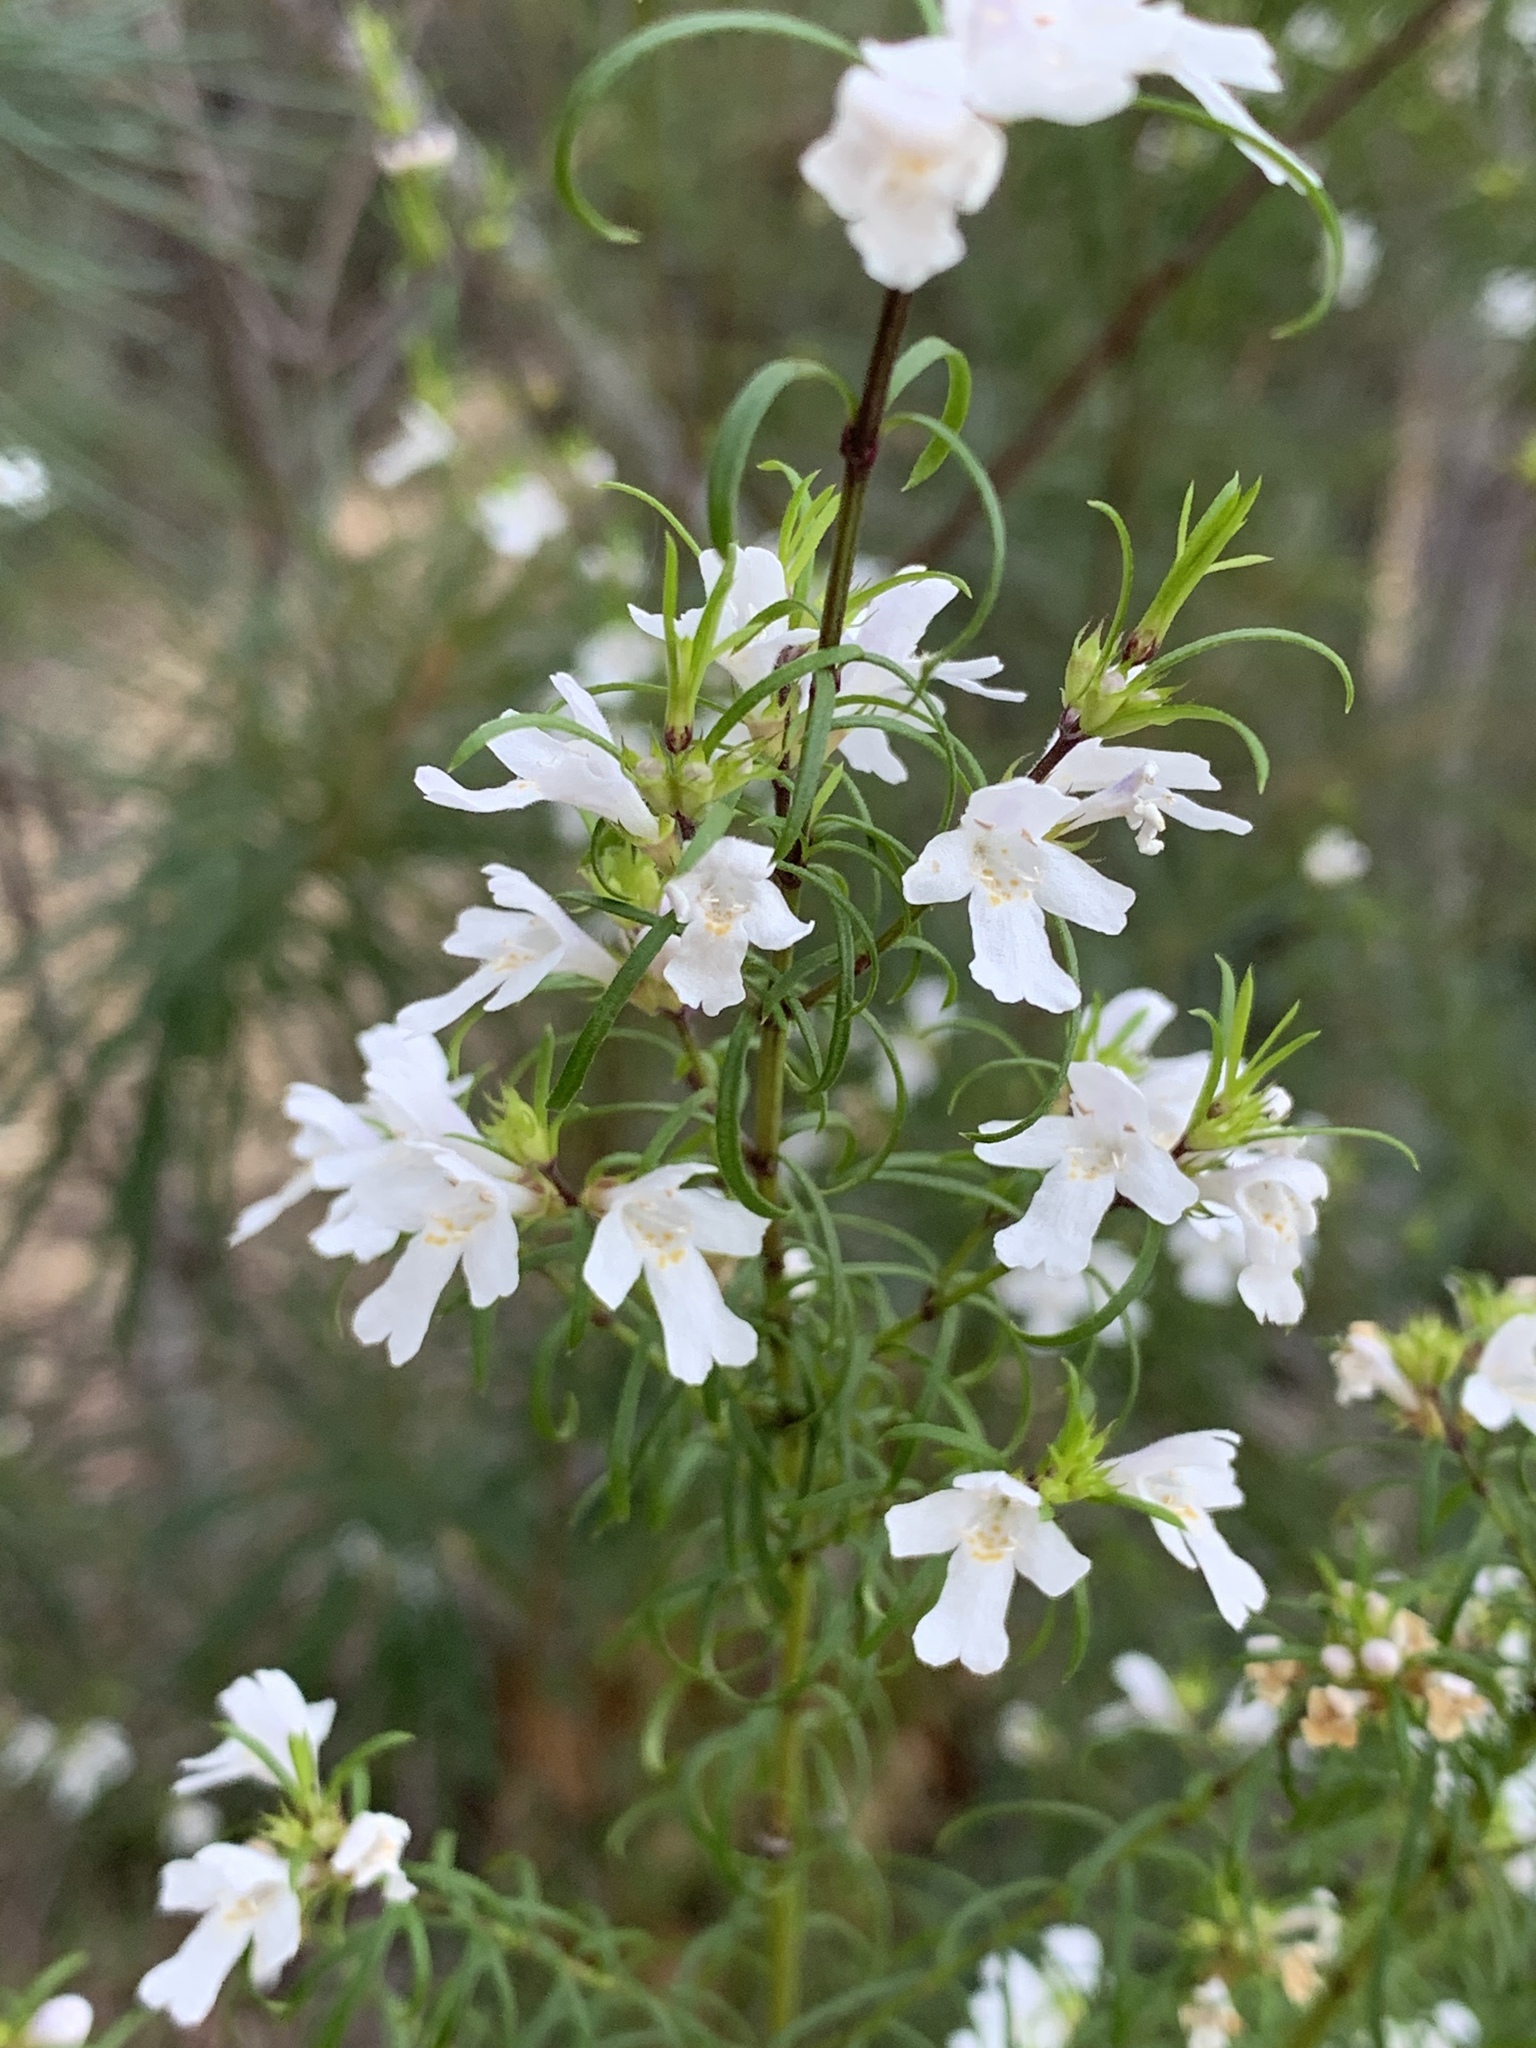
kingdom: Plantae
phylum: Tracheophyta
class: Magnoliopsida
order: Lamiales
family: Lamiaceae
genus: Westringia
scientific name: Westringia longifolia
